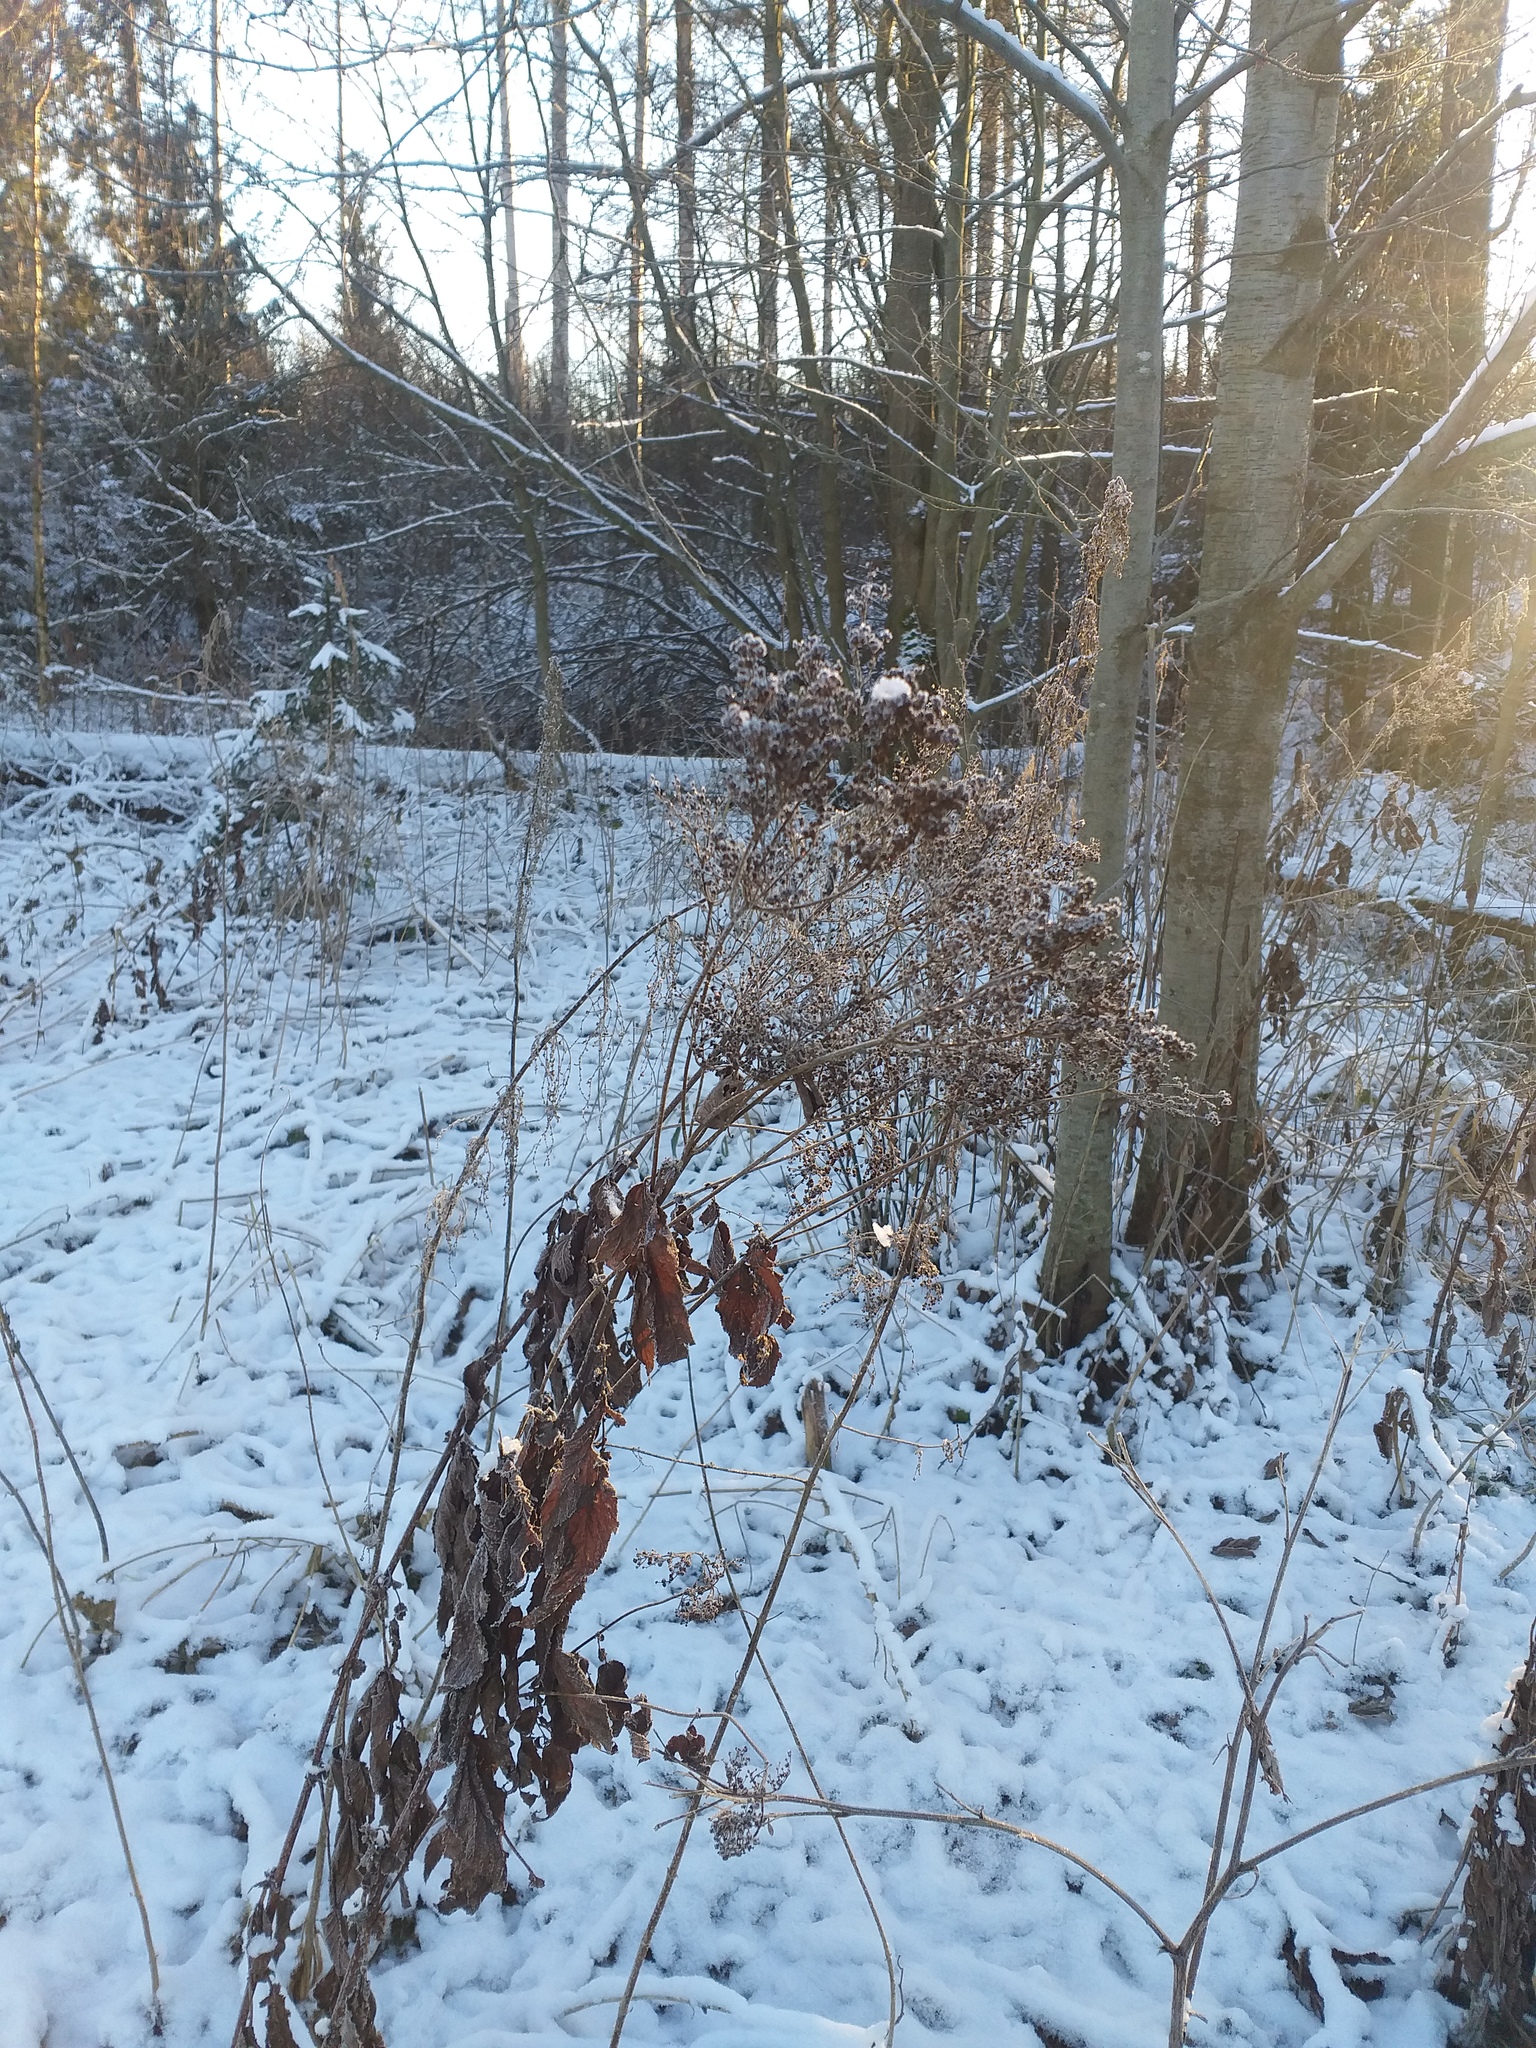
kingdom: Plantae
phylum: Tracheophyta
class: Magnoliopsida
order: Rosales
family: Rosaceae
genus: Filipendula
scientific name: Filipendula ulmaria
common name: Meadowsweet
